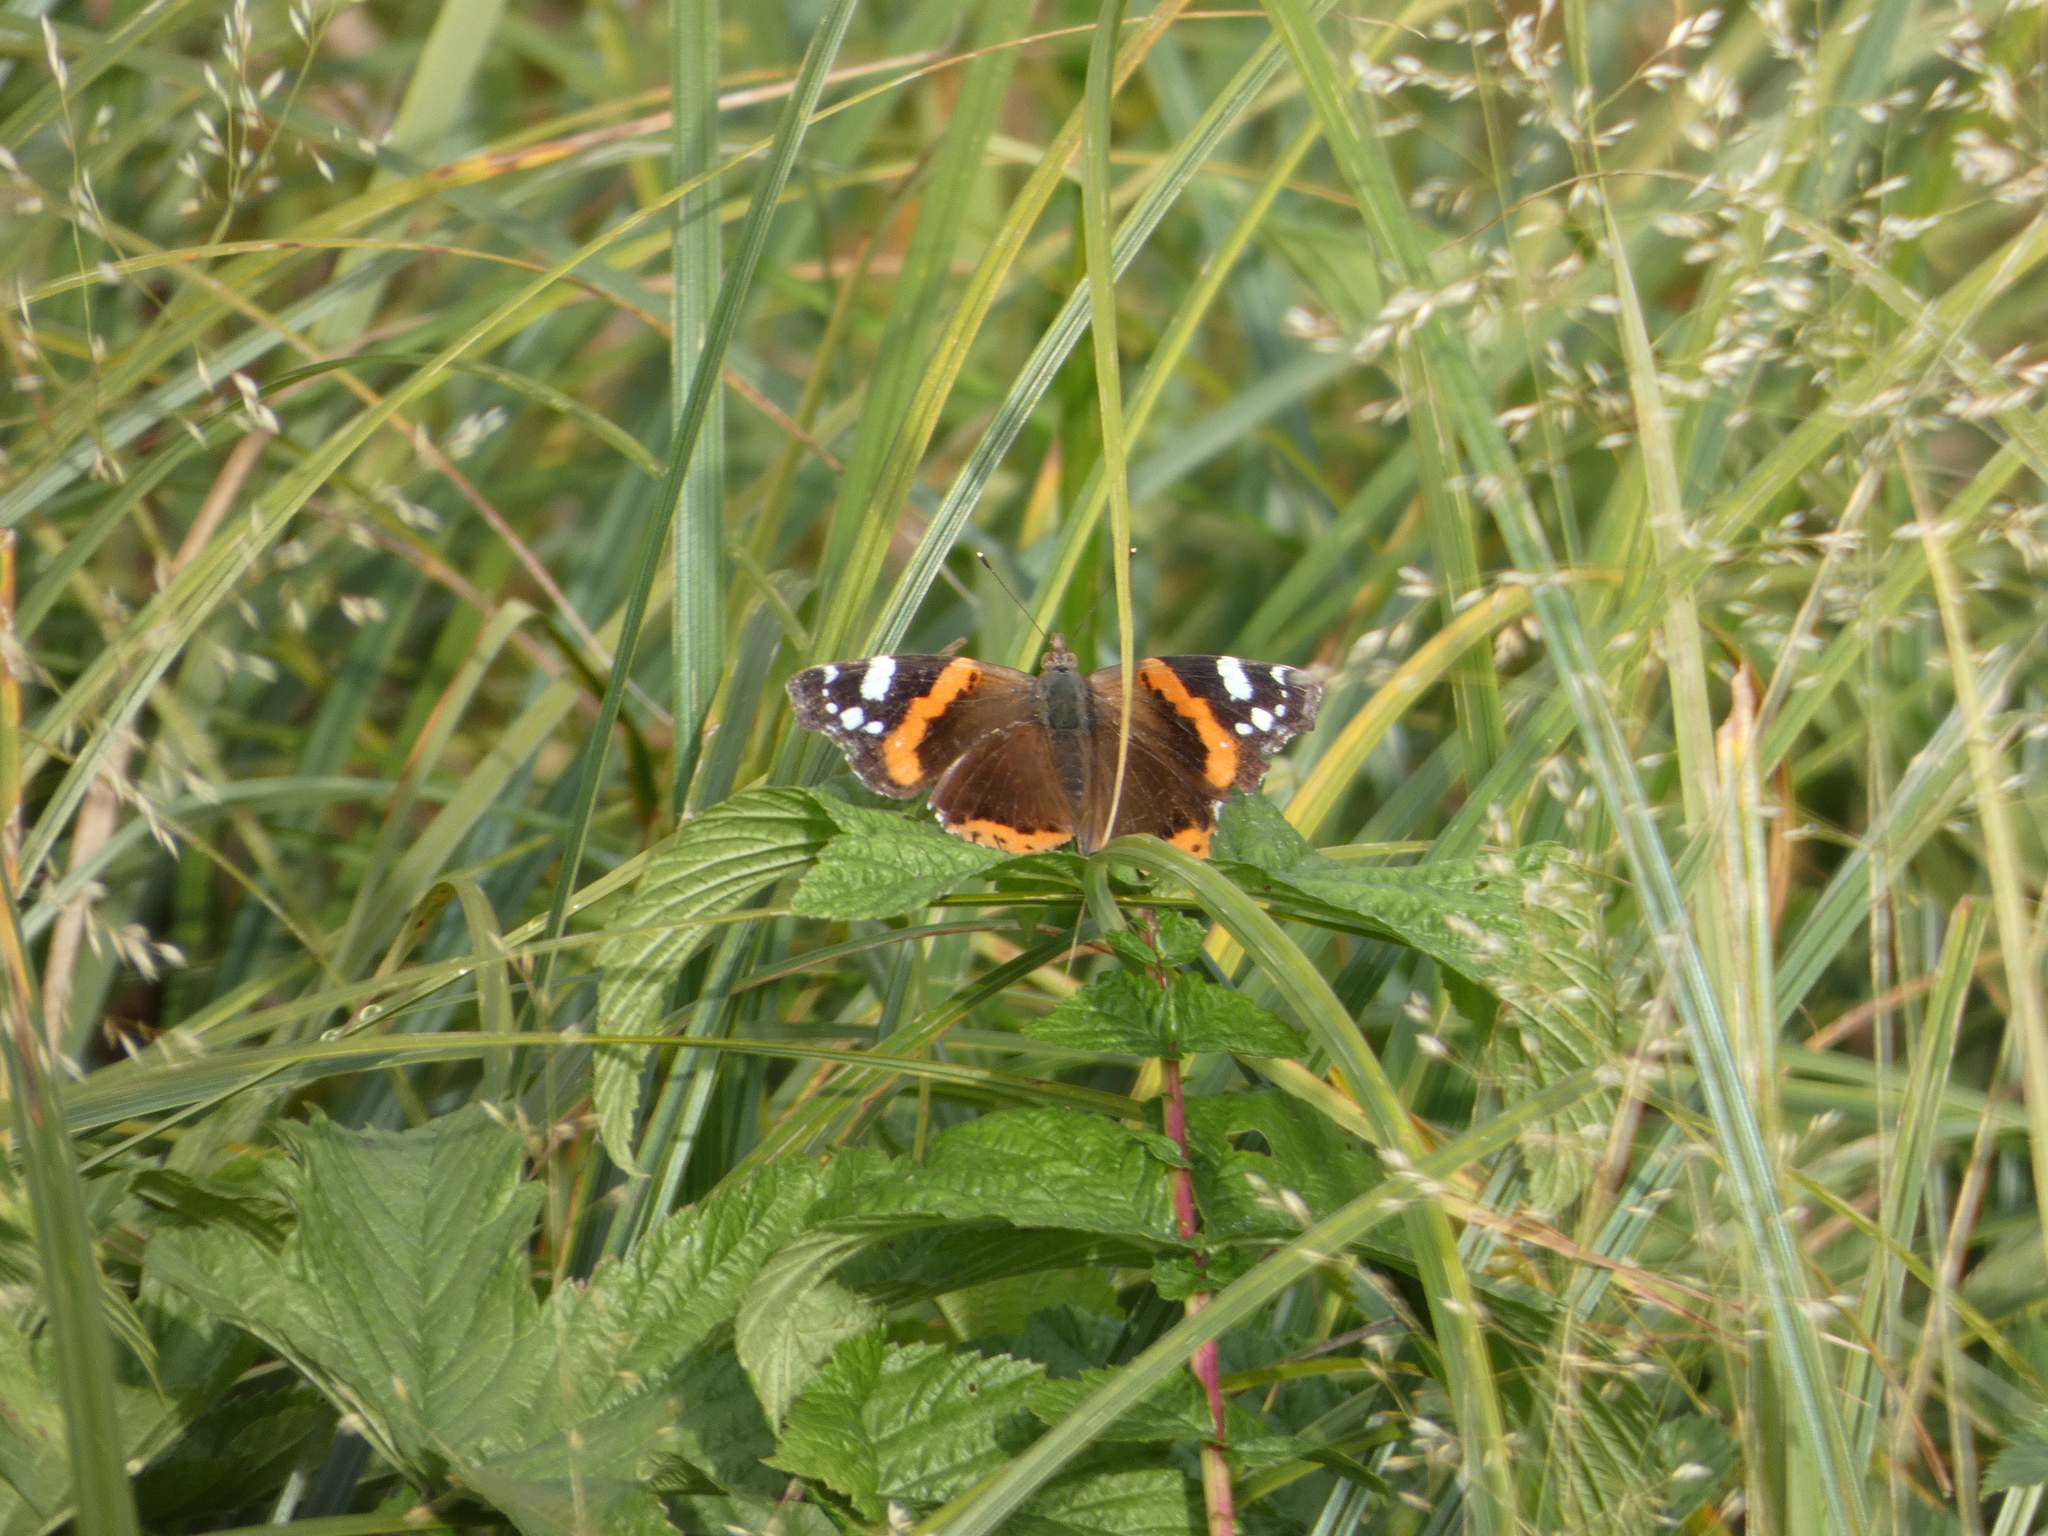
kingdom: Animalia
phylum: Arthropoda
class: Insecta
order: Lepidoptera
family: Nymphalidae
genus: Vanessa
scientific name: Vanessa atalanta
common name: Red admiral
